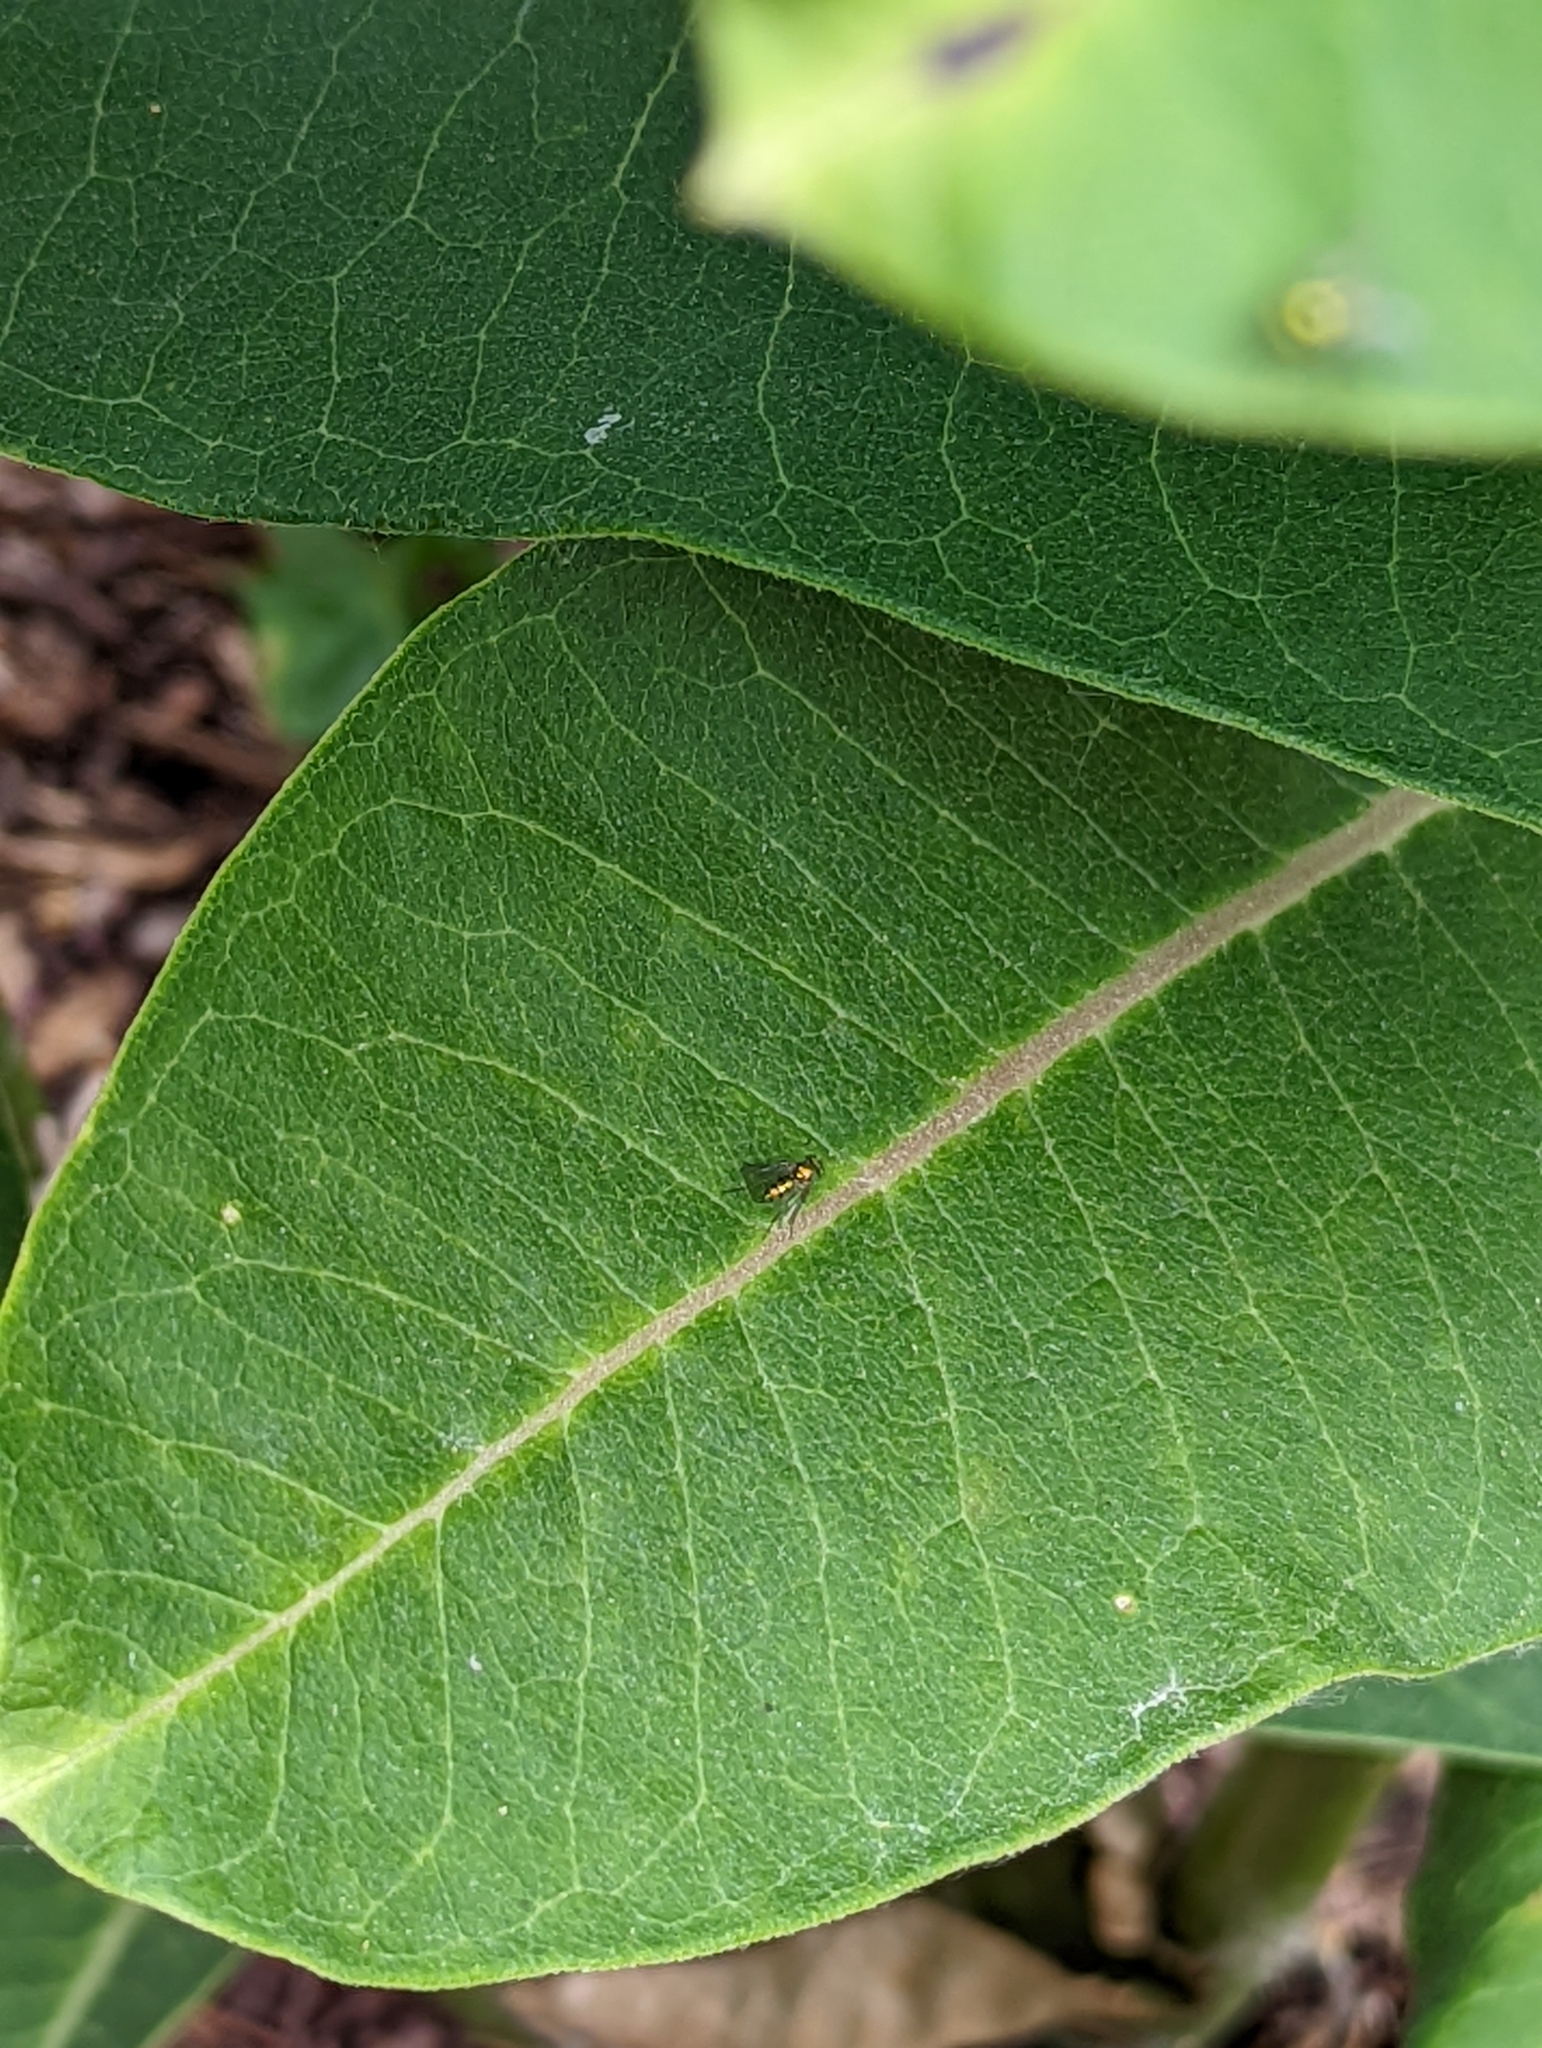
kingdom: Animalia
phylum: Arthropoda
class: Insecta
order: Diptera
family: Dolichopodidae
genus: Condylostylus
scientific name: Condylostylus
